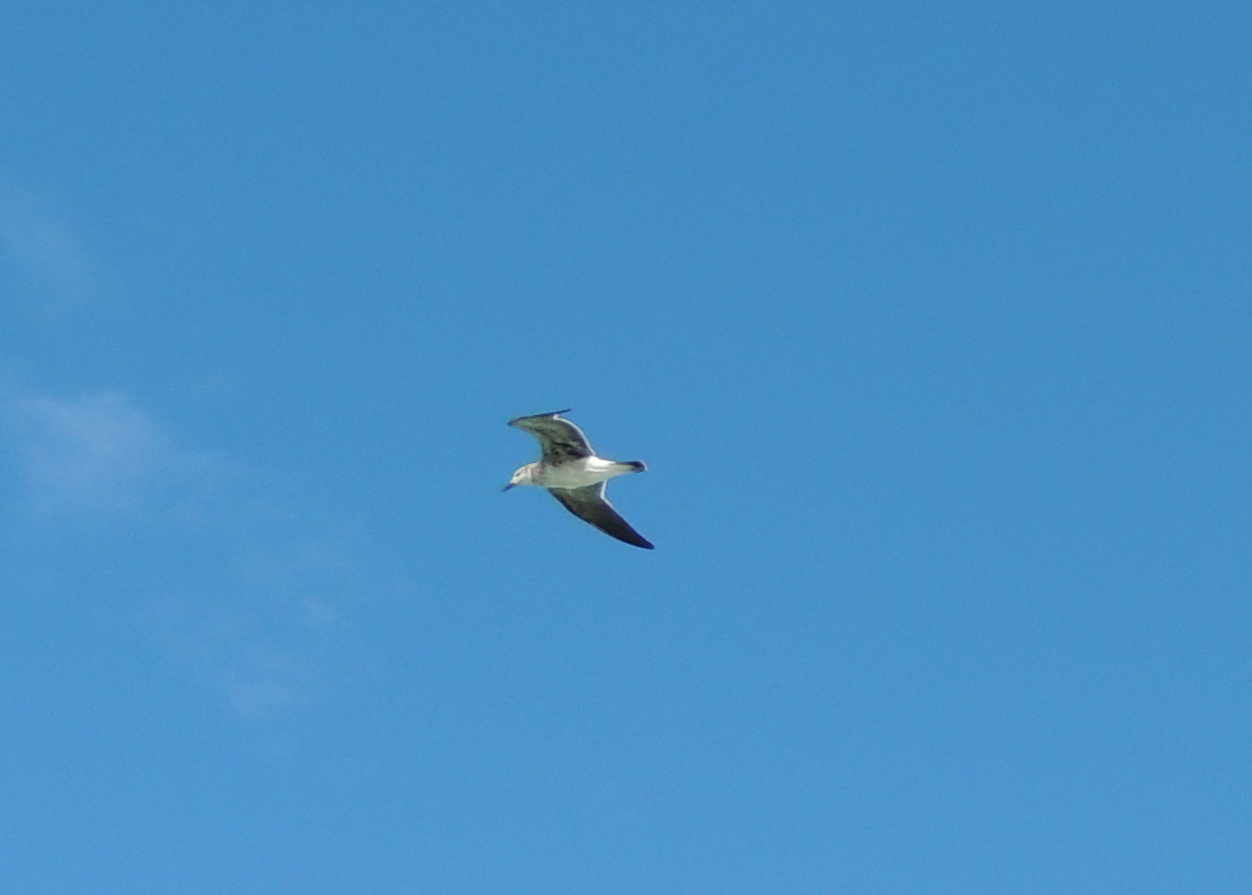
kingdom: Animalia
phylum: Chordata
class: Aves
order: Charadriiformes
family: Laridae
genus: Leucophaeus
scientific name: Leucophaeus atricilla
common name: Laughing gull
